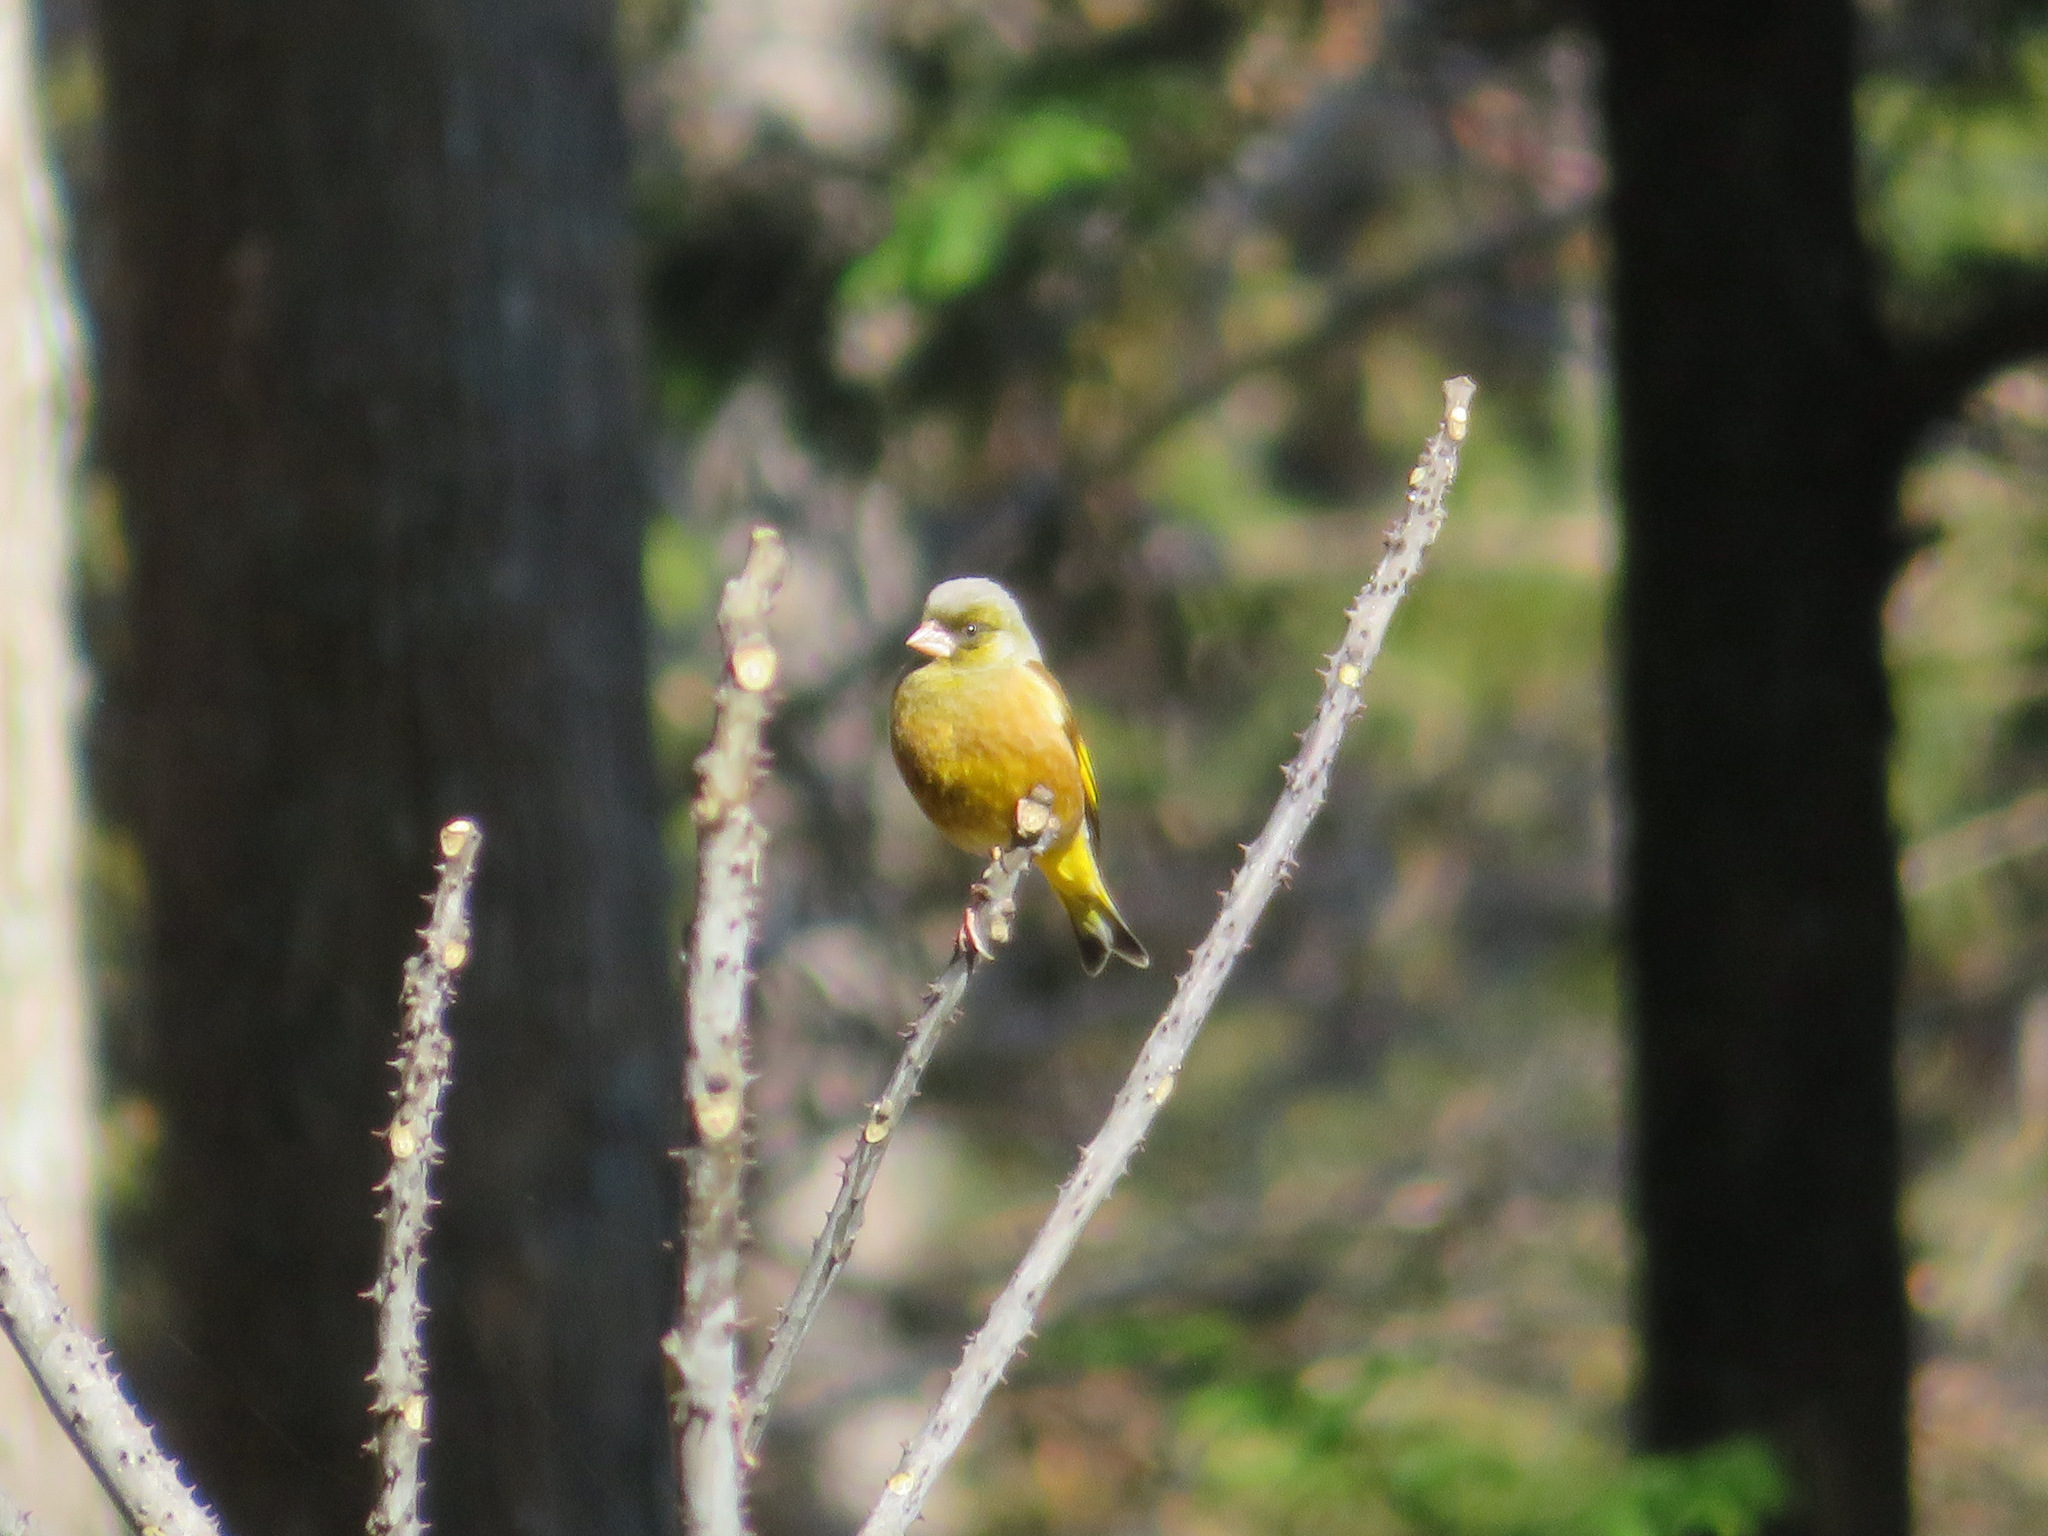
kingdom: Plantae
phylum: Tracheophyta
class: Liliopsida
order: Poales
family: Poaceae
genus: Chloris
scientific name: Chloris sinica
